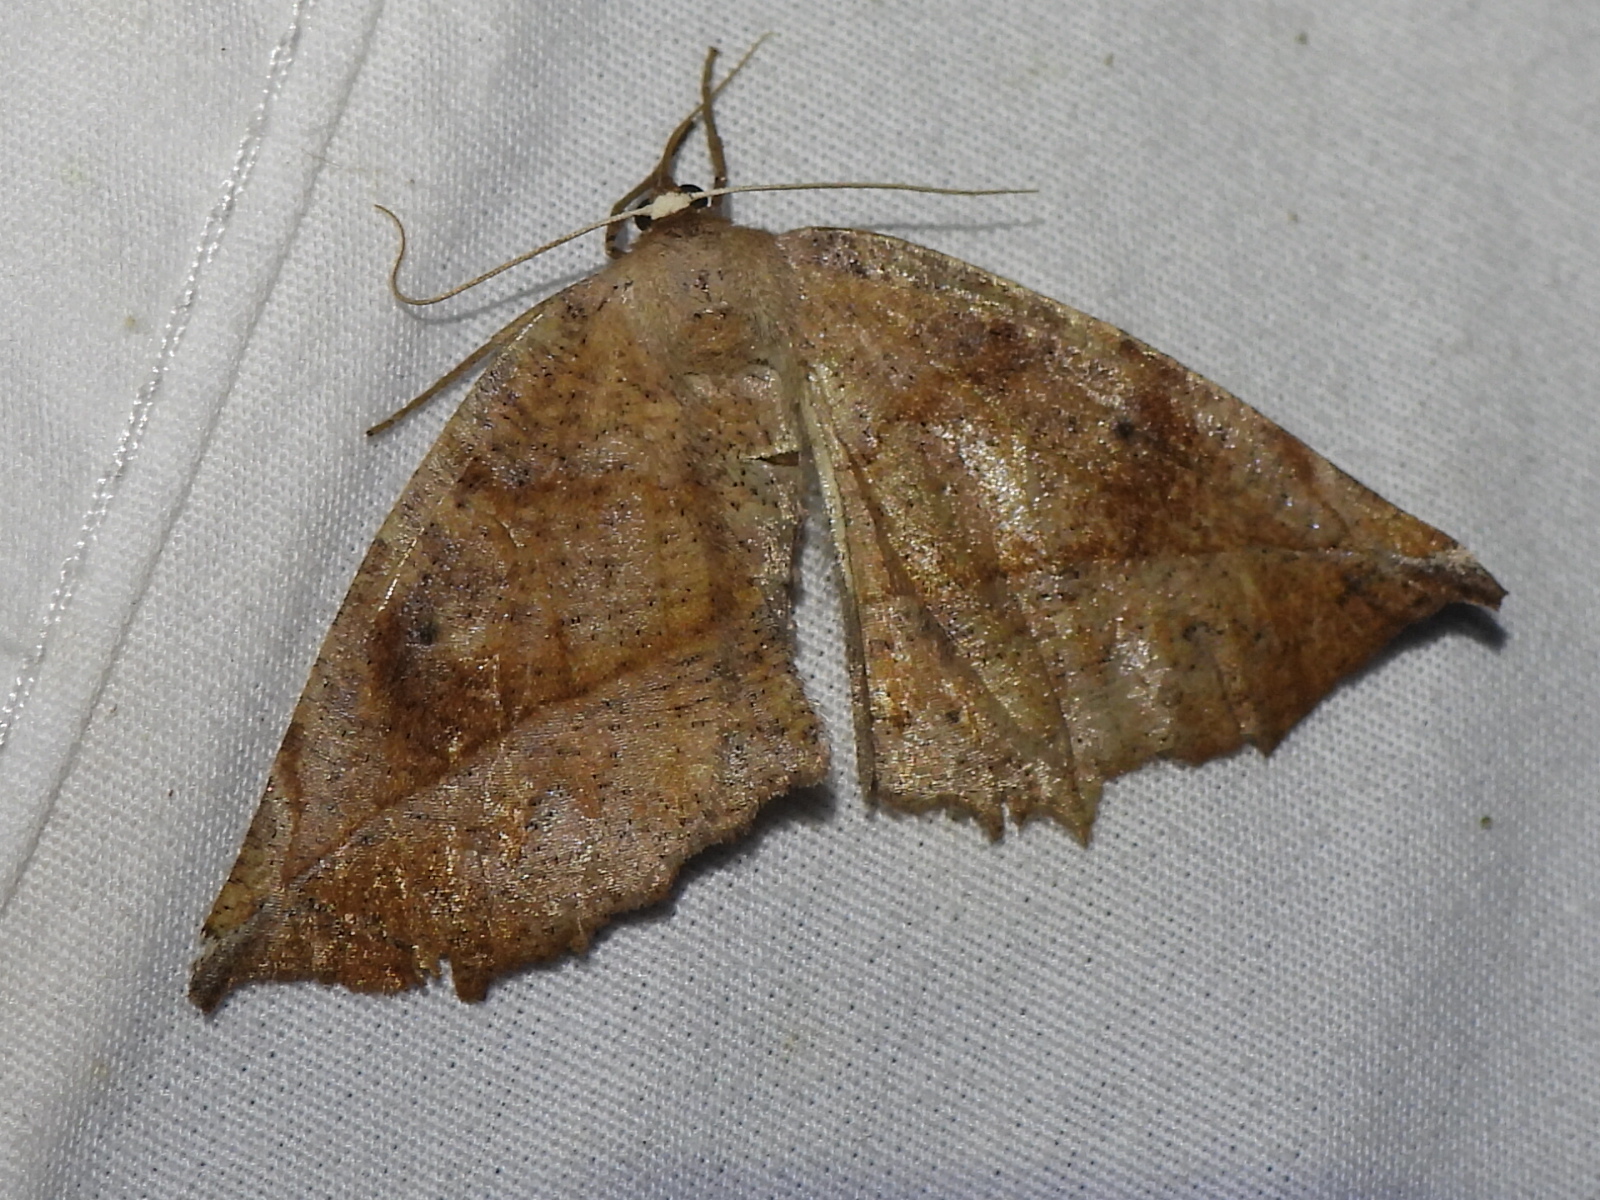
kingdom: Animalia
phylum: Arthropoda
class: Insecta
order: Lepidoptera
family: Geometridae
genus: Eutrapela
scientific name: Eutrapela clemataria
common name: Curved-toothed geometer
